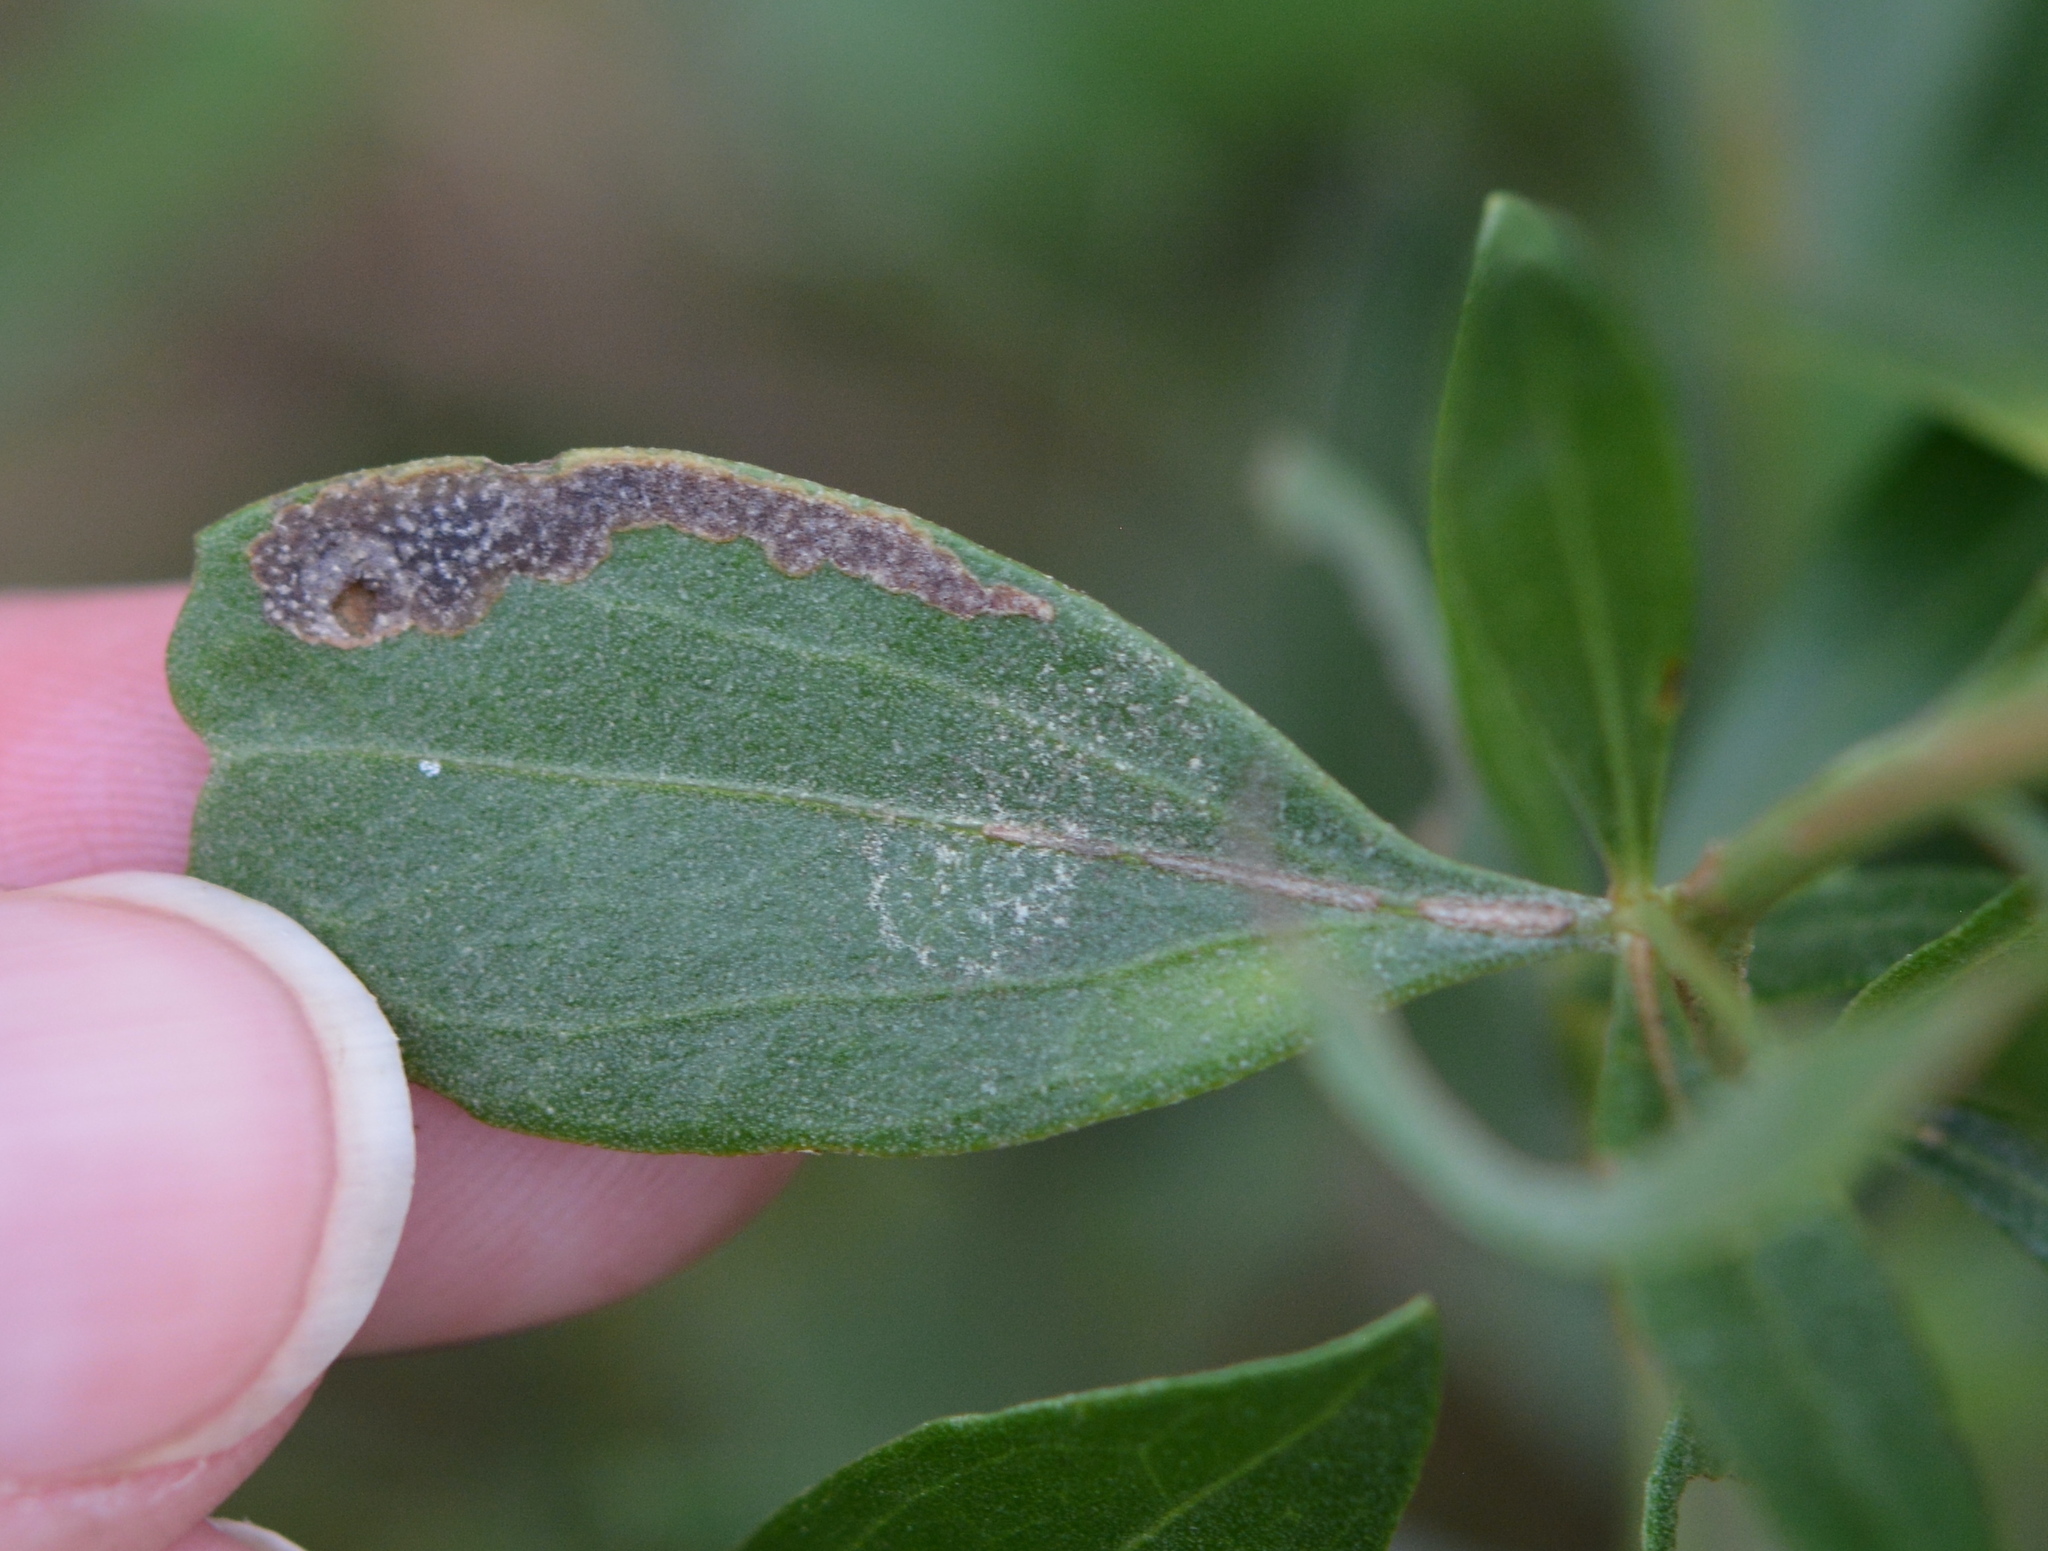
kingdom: Animalia
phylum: Arthropoda
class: Insecta
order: Diptera
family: Agromyzidae
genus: Nemorimyza
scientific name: Nemorimyza posticata
